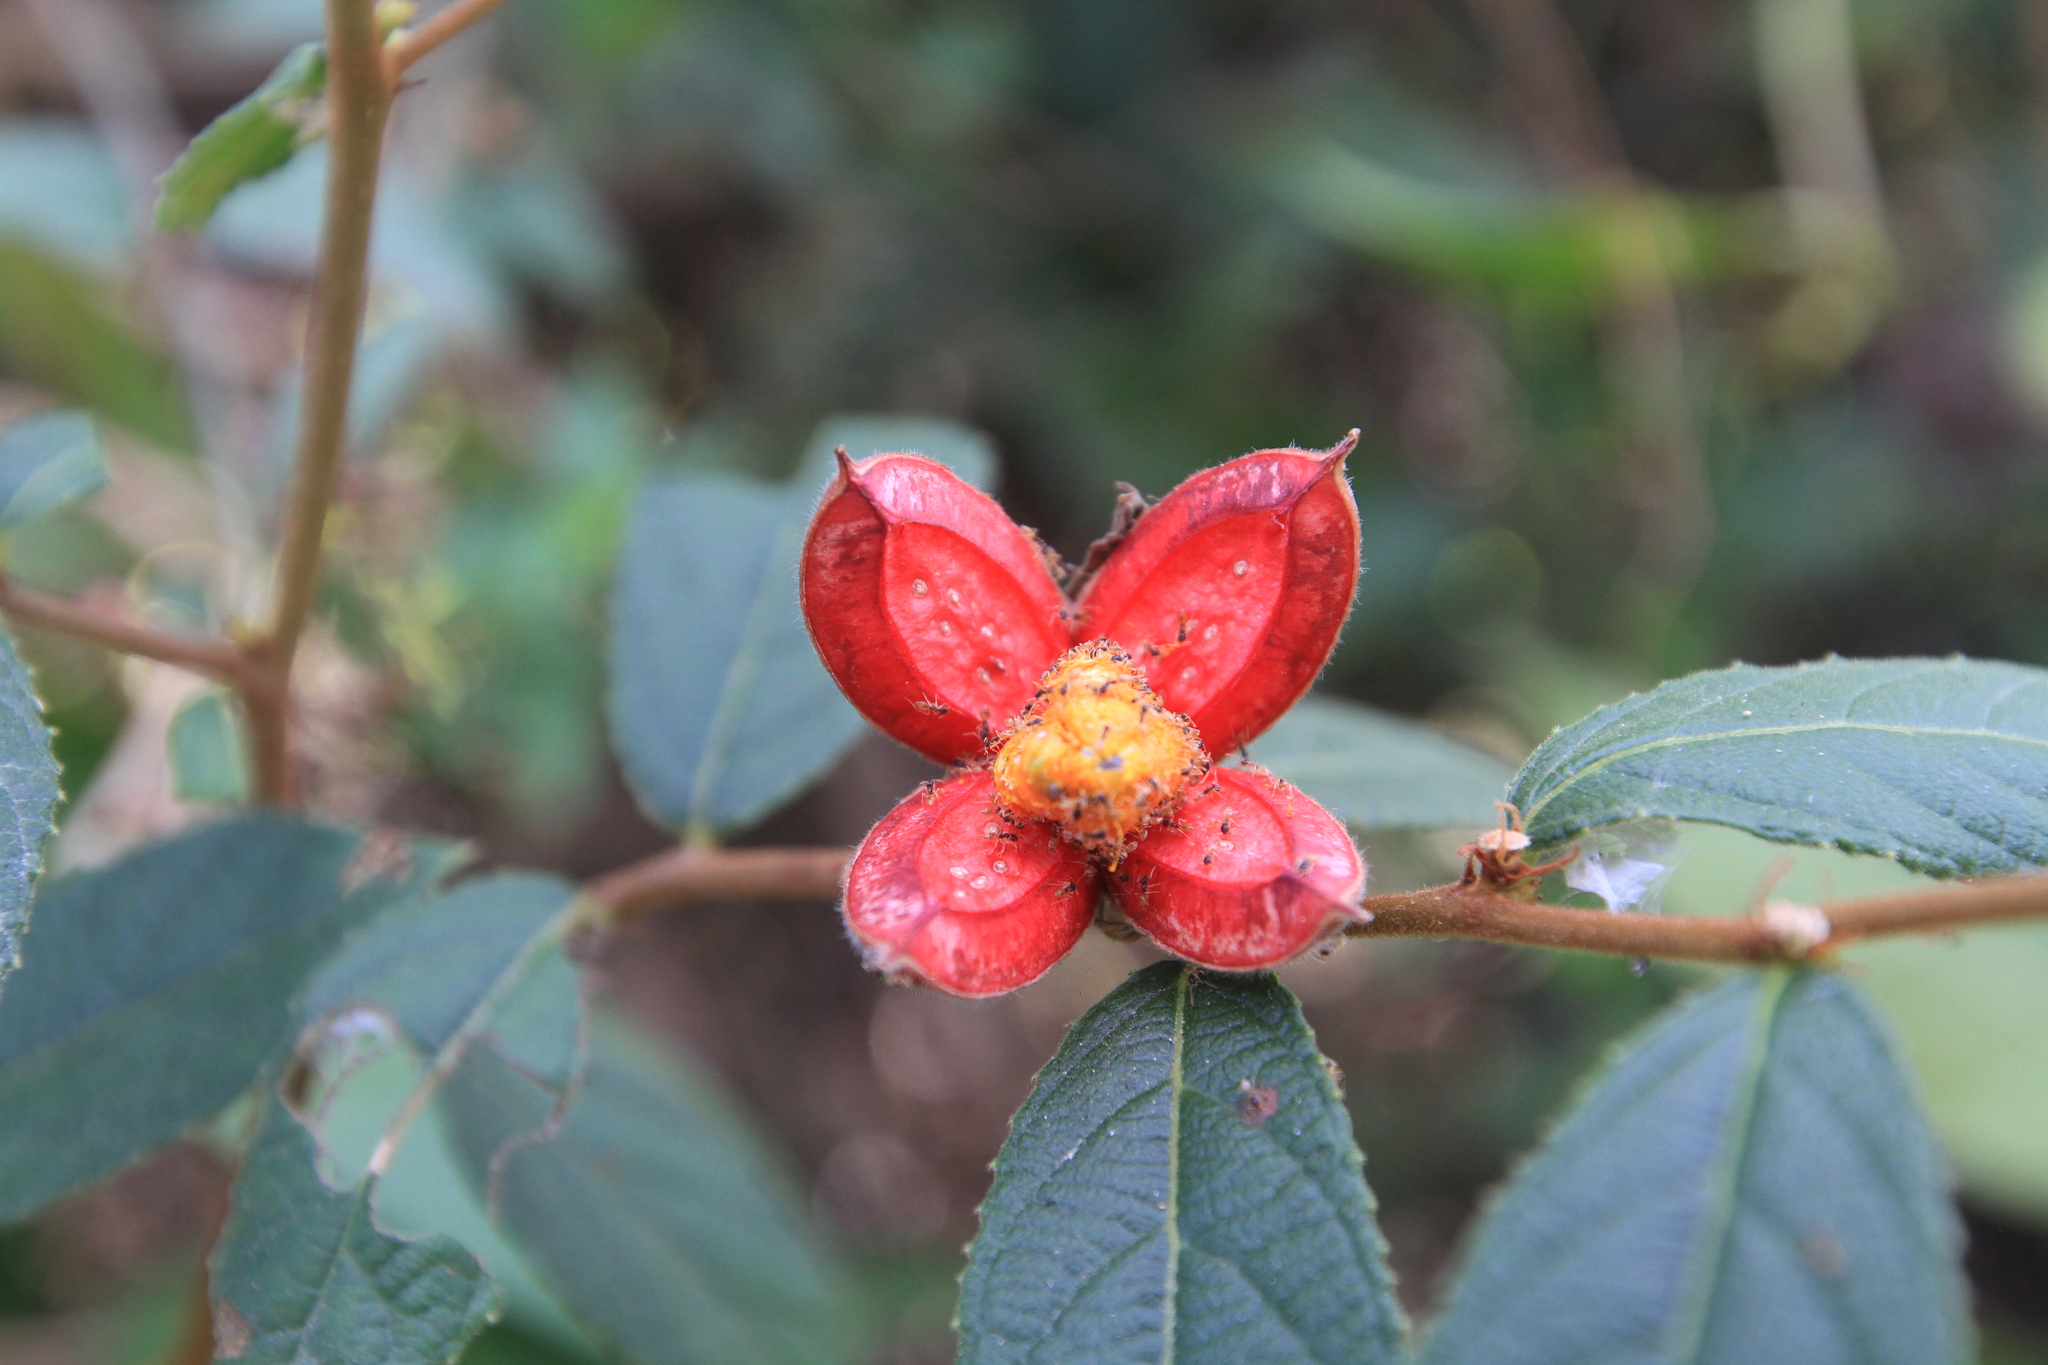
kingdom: Plantae
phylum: Tracheophyta
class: Magnoliopsida
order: Malpighiales
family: Salicaceae
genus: Casearia
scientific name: Casearia dodecandra
